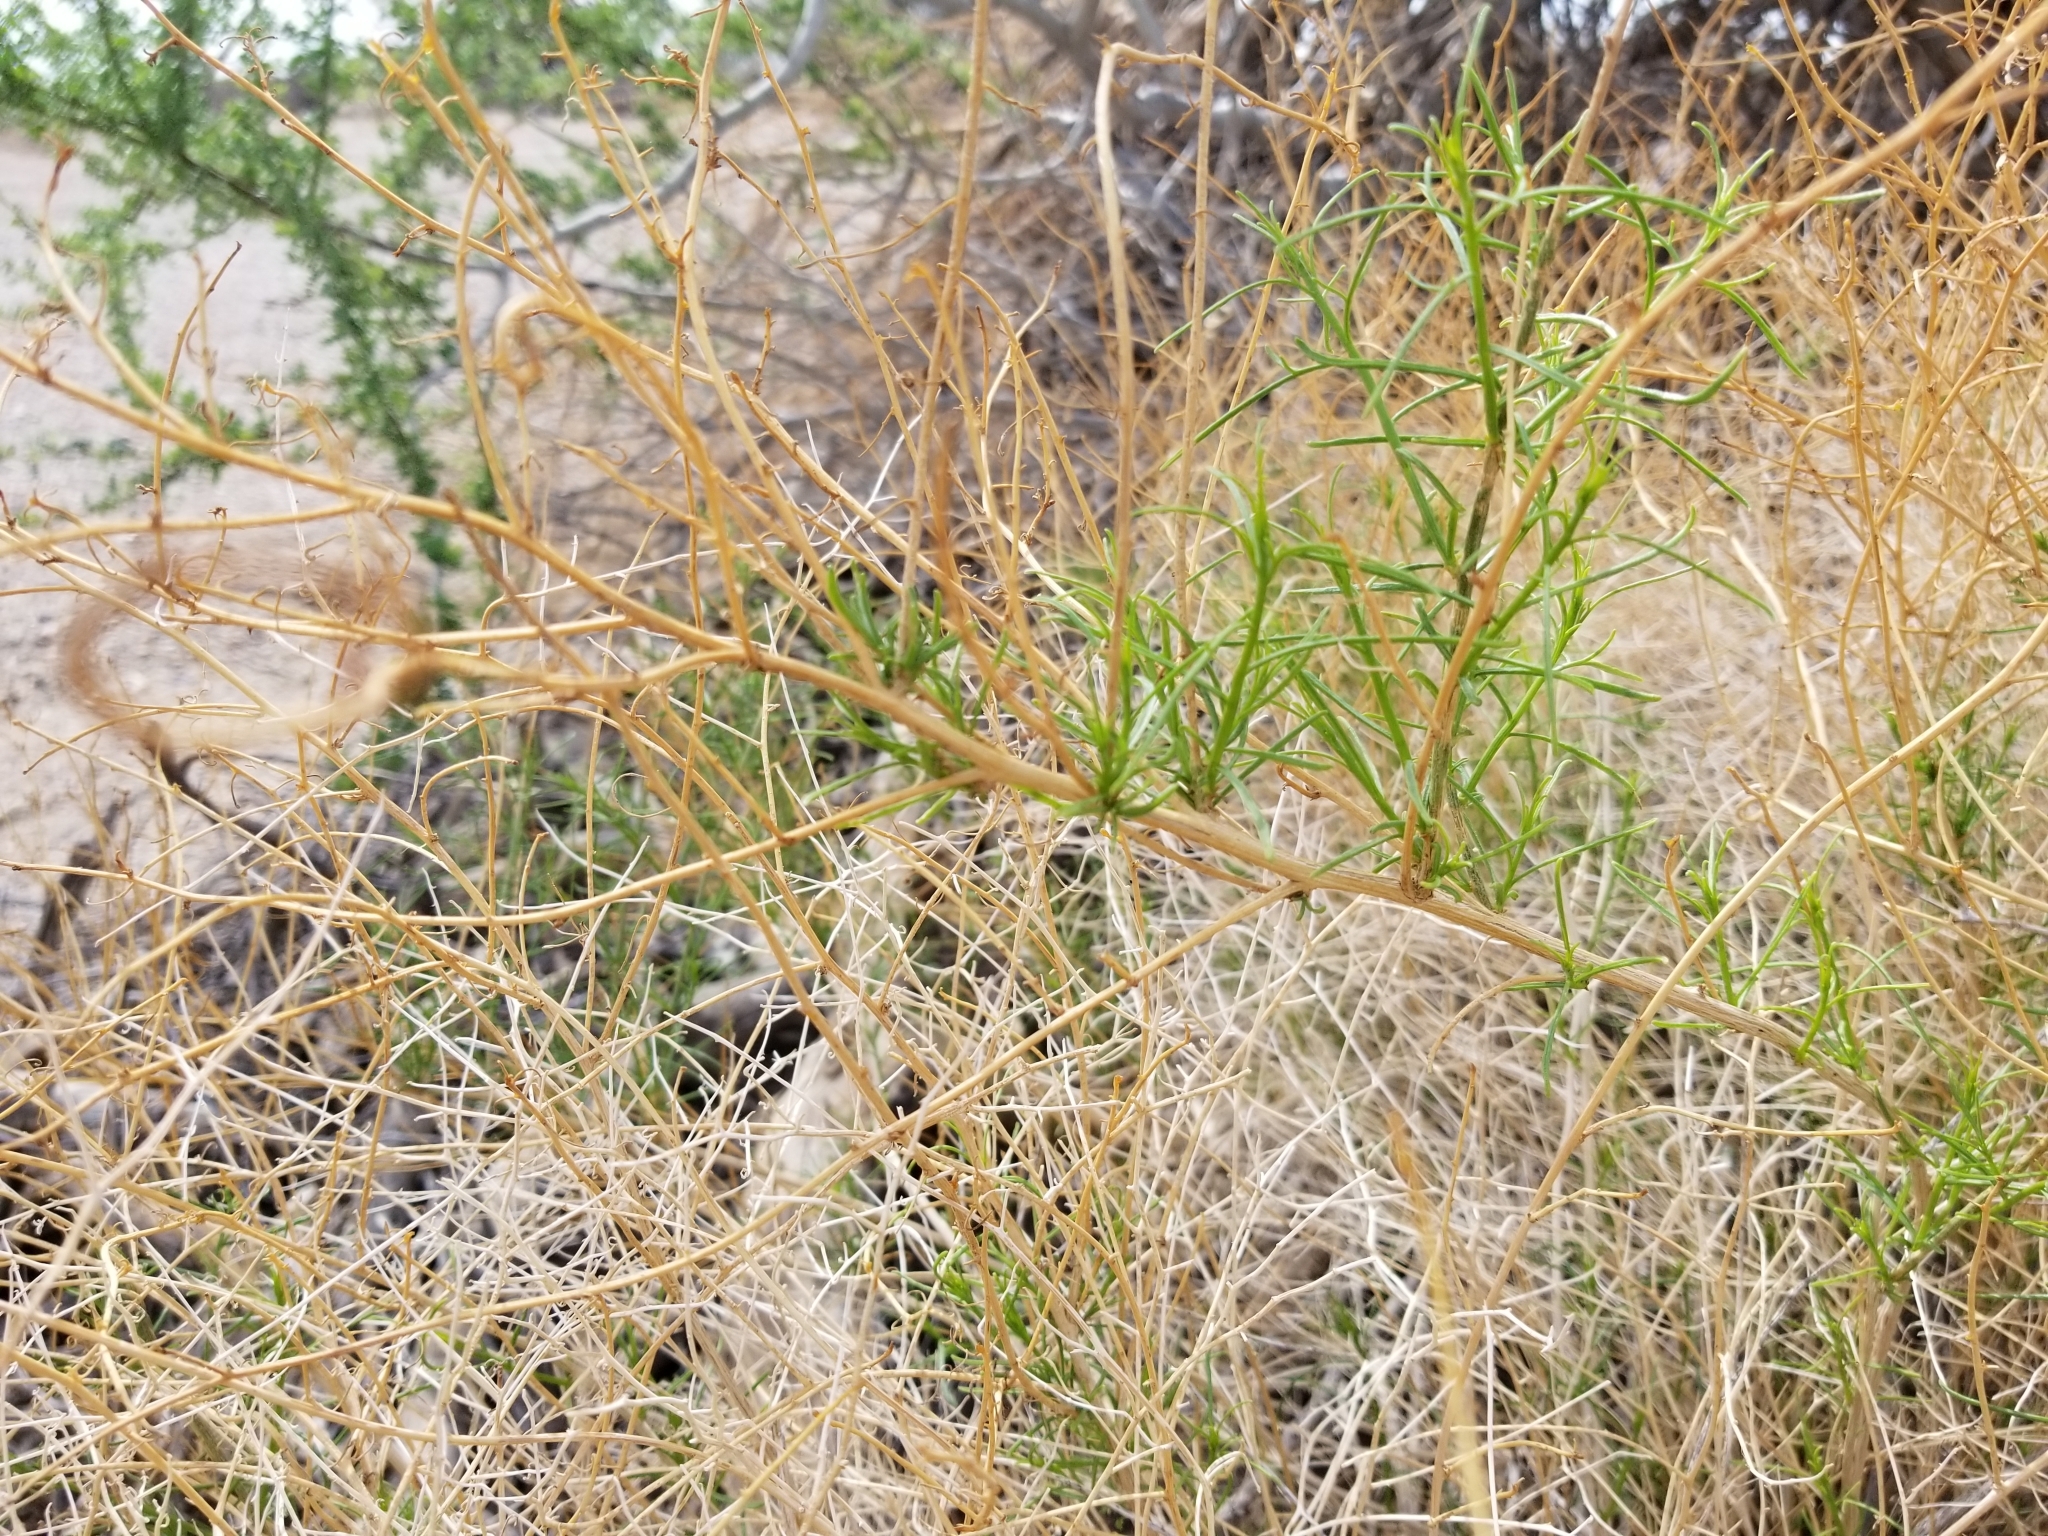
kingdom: Plantae
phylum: Tracheophyta
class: Magnoliopsida
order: Asterales
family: Asteraceae
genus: Ambrosia
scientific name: Ambrosia salsola
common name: Burrobrush
